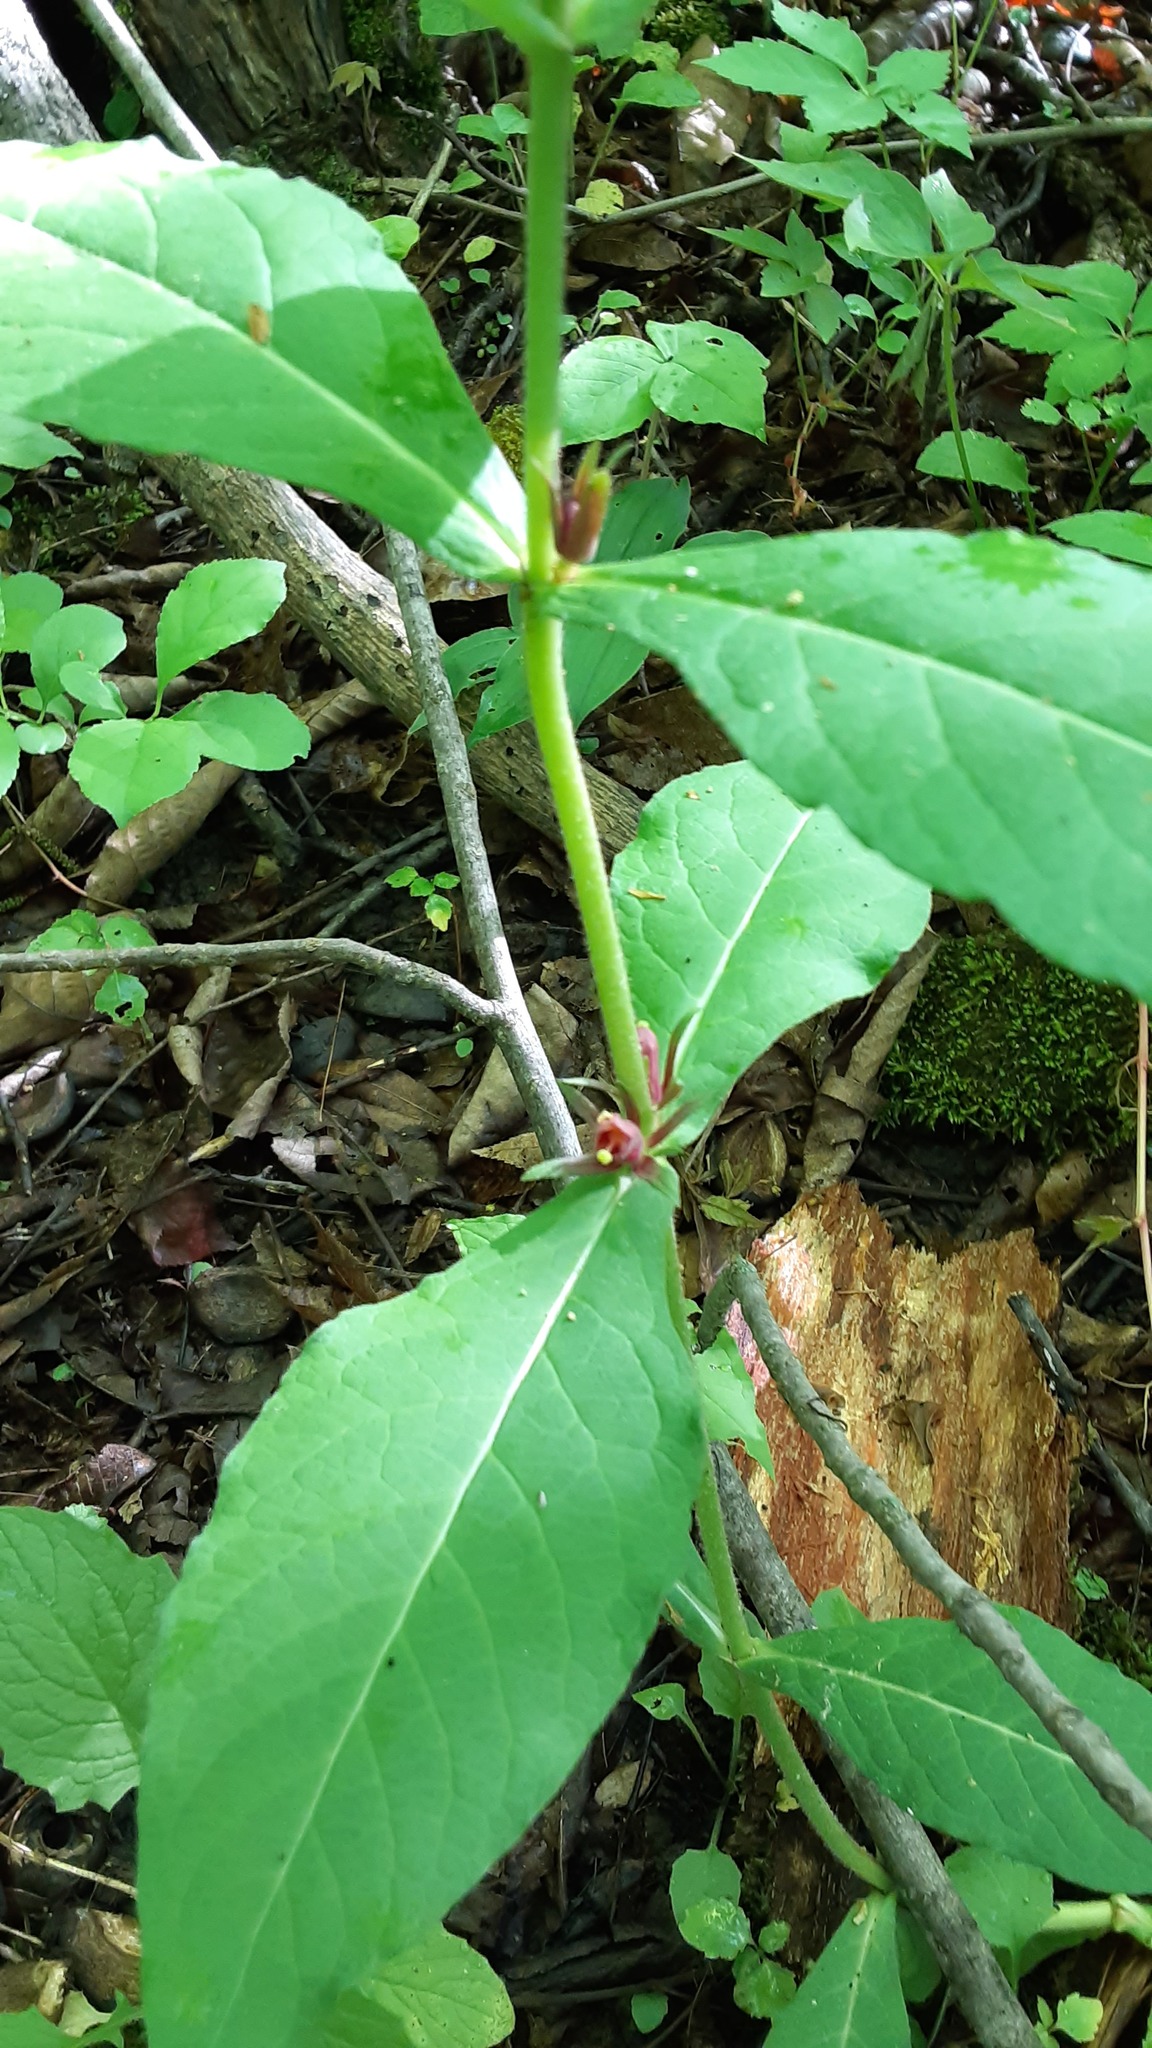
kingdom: Plantae
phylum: Tracheophyta
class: Magnoliopsida
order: Dipsacales
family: Caprifoliaceae
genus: Triosteum
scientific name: Triosteum aurantiacum
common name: Coffee tinker's-weed
